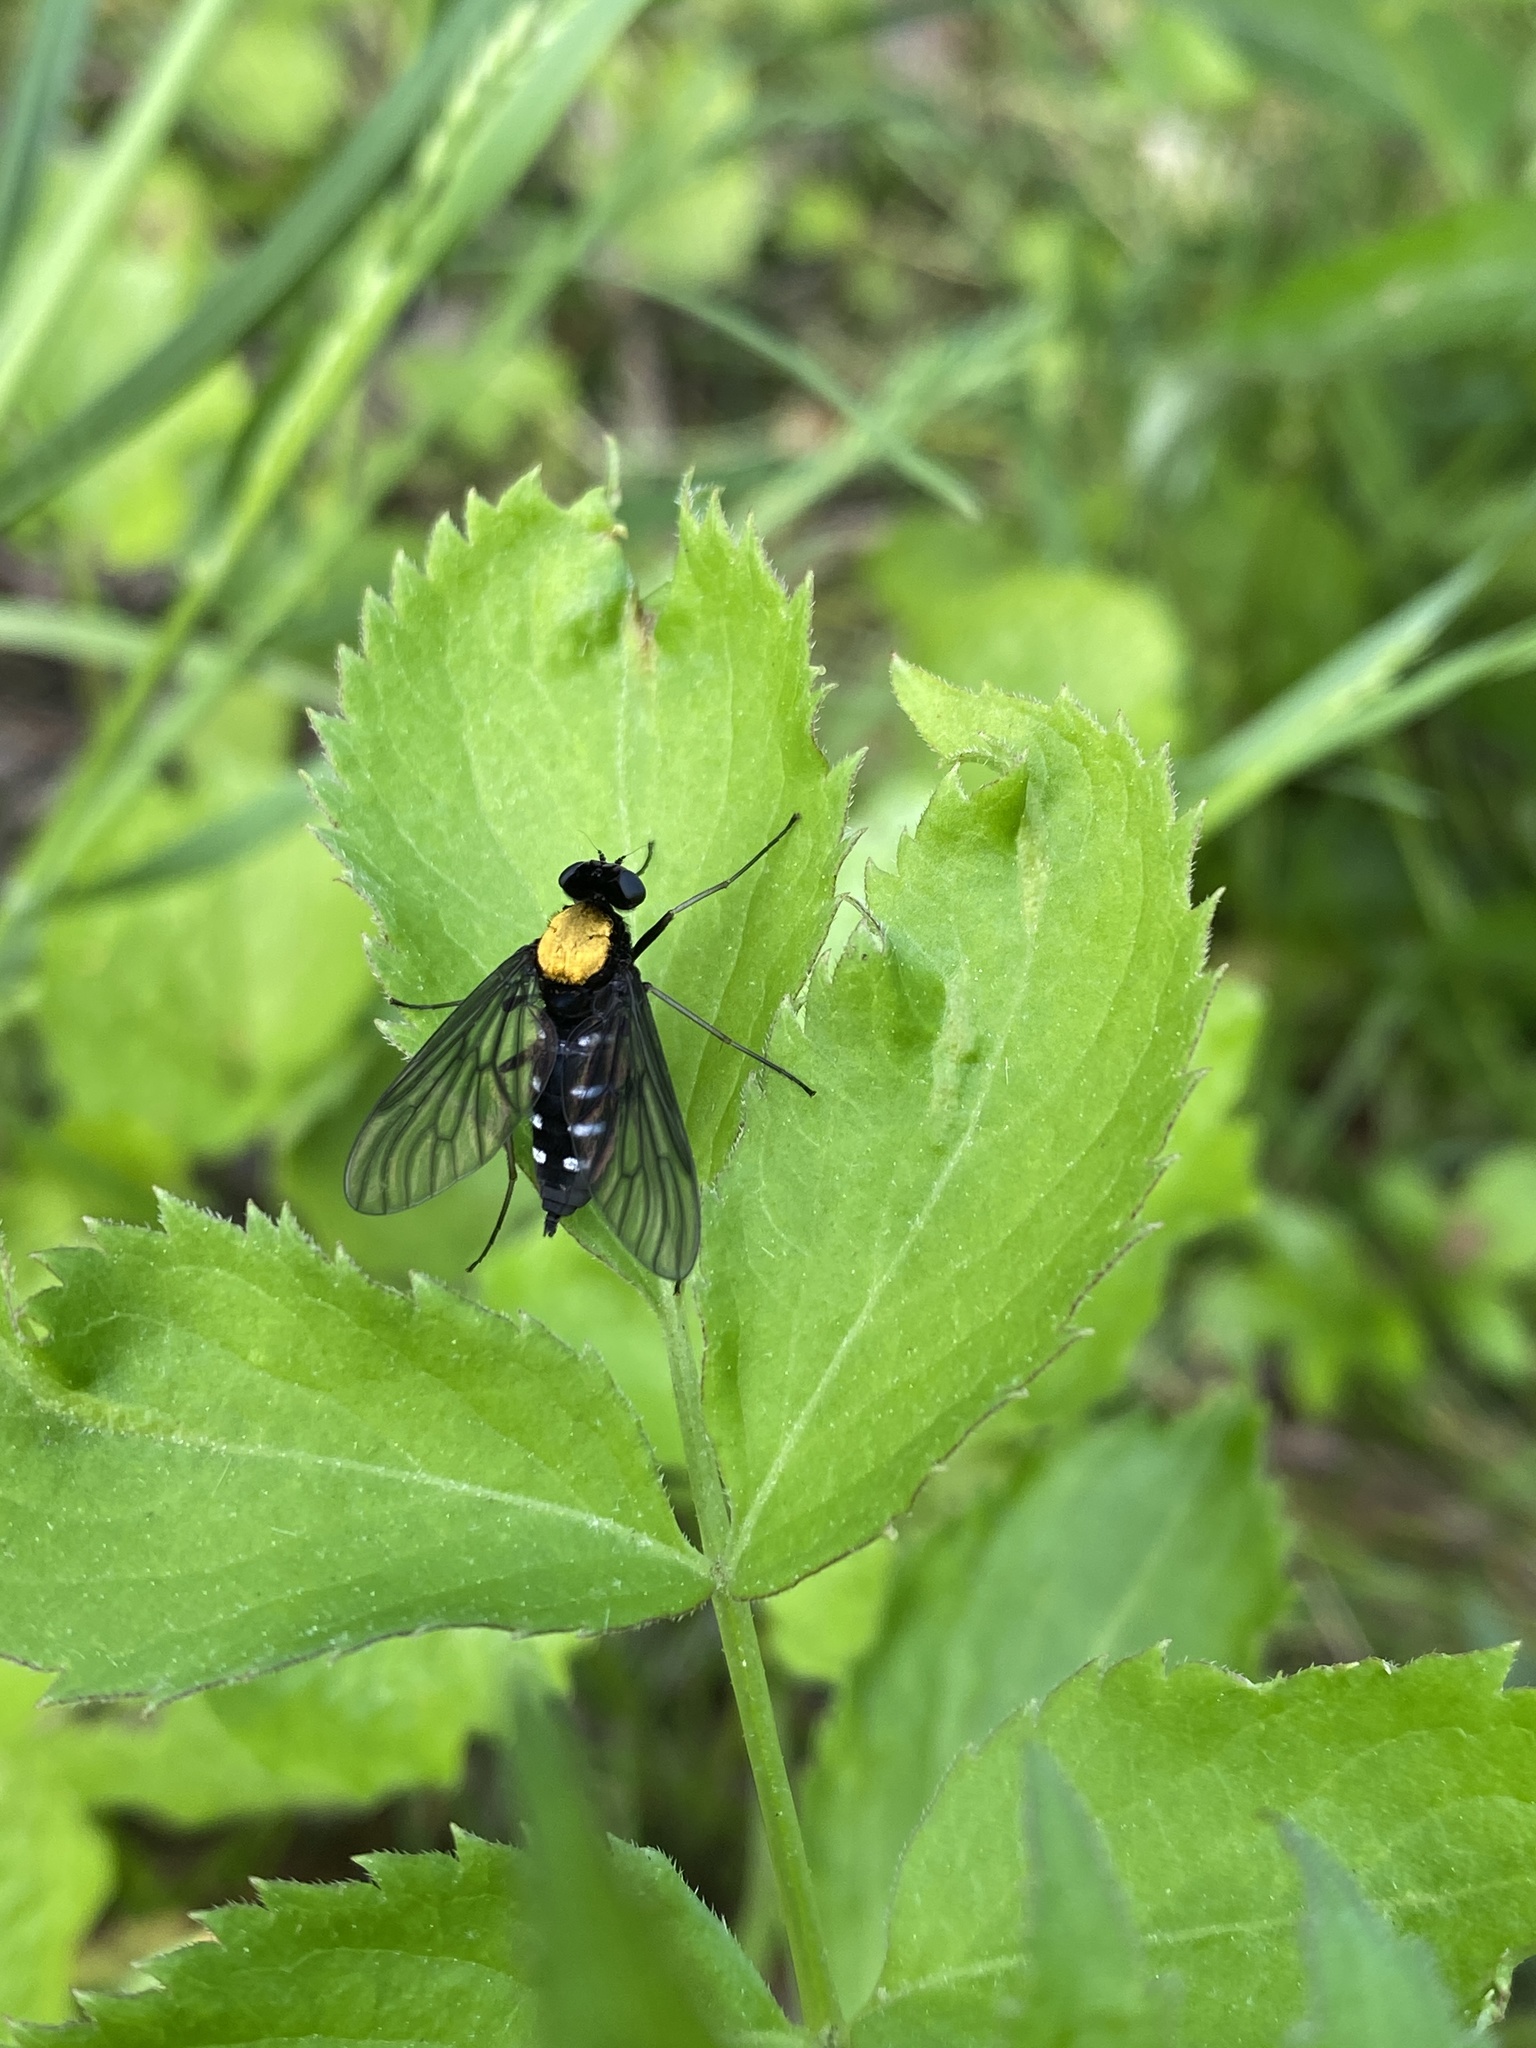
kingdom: Animalia
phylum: Arthropoda
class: Insecta
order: Diptera
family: Rhagionidae
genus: Chrysopilus
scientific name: Chrysopilus thoracicus
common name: Golden-backed snipe fly
